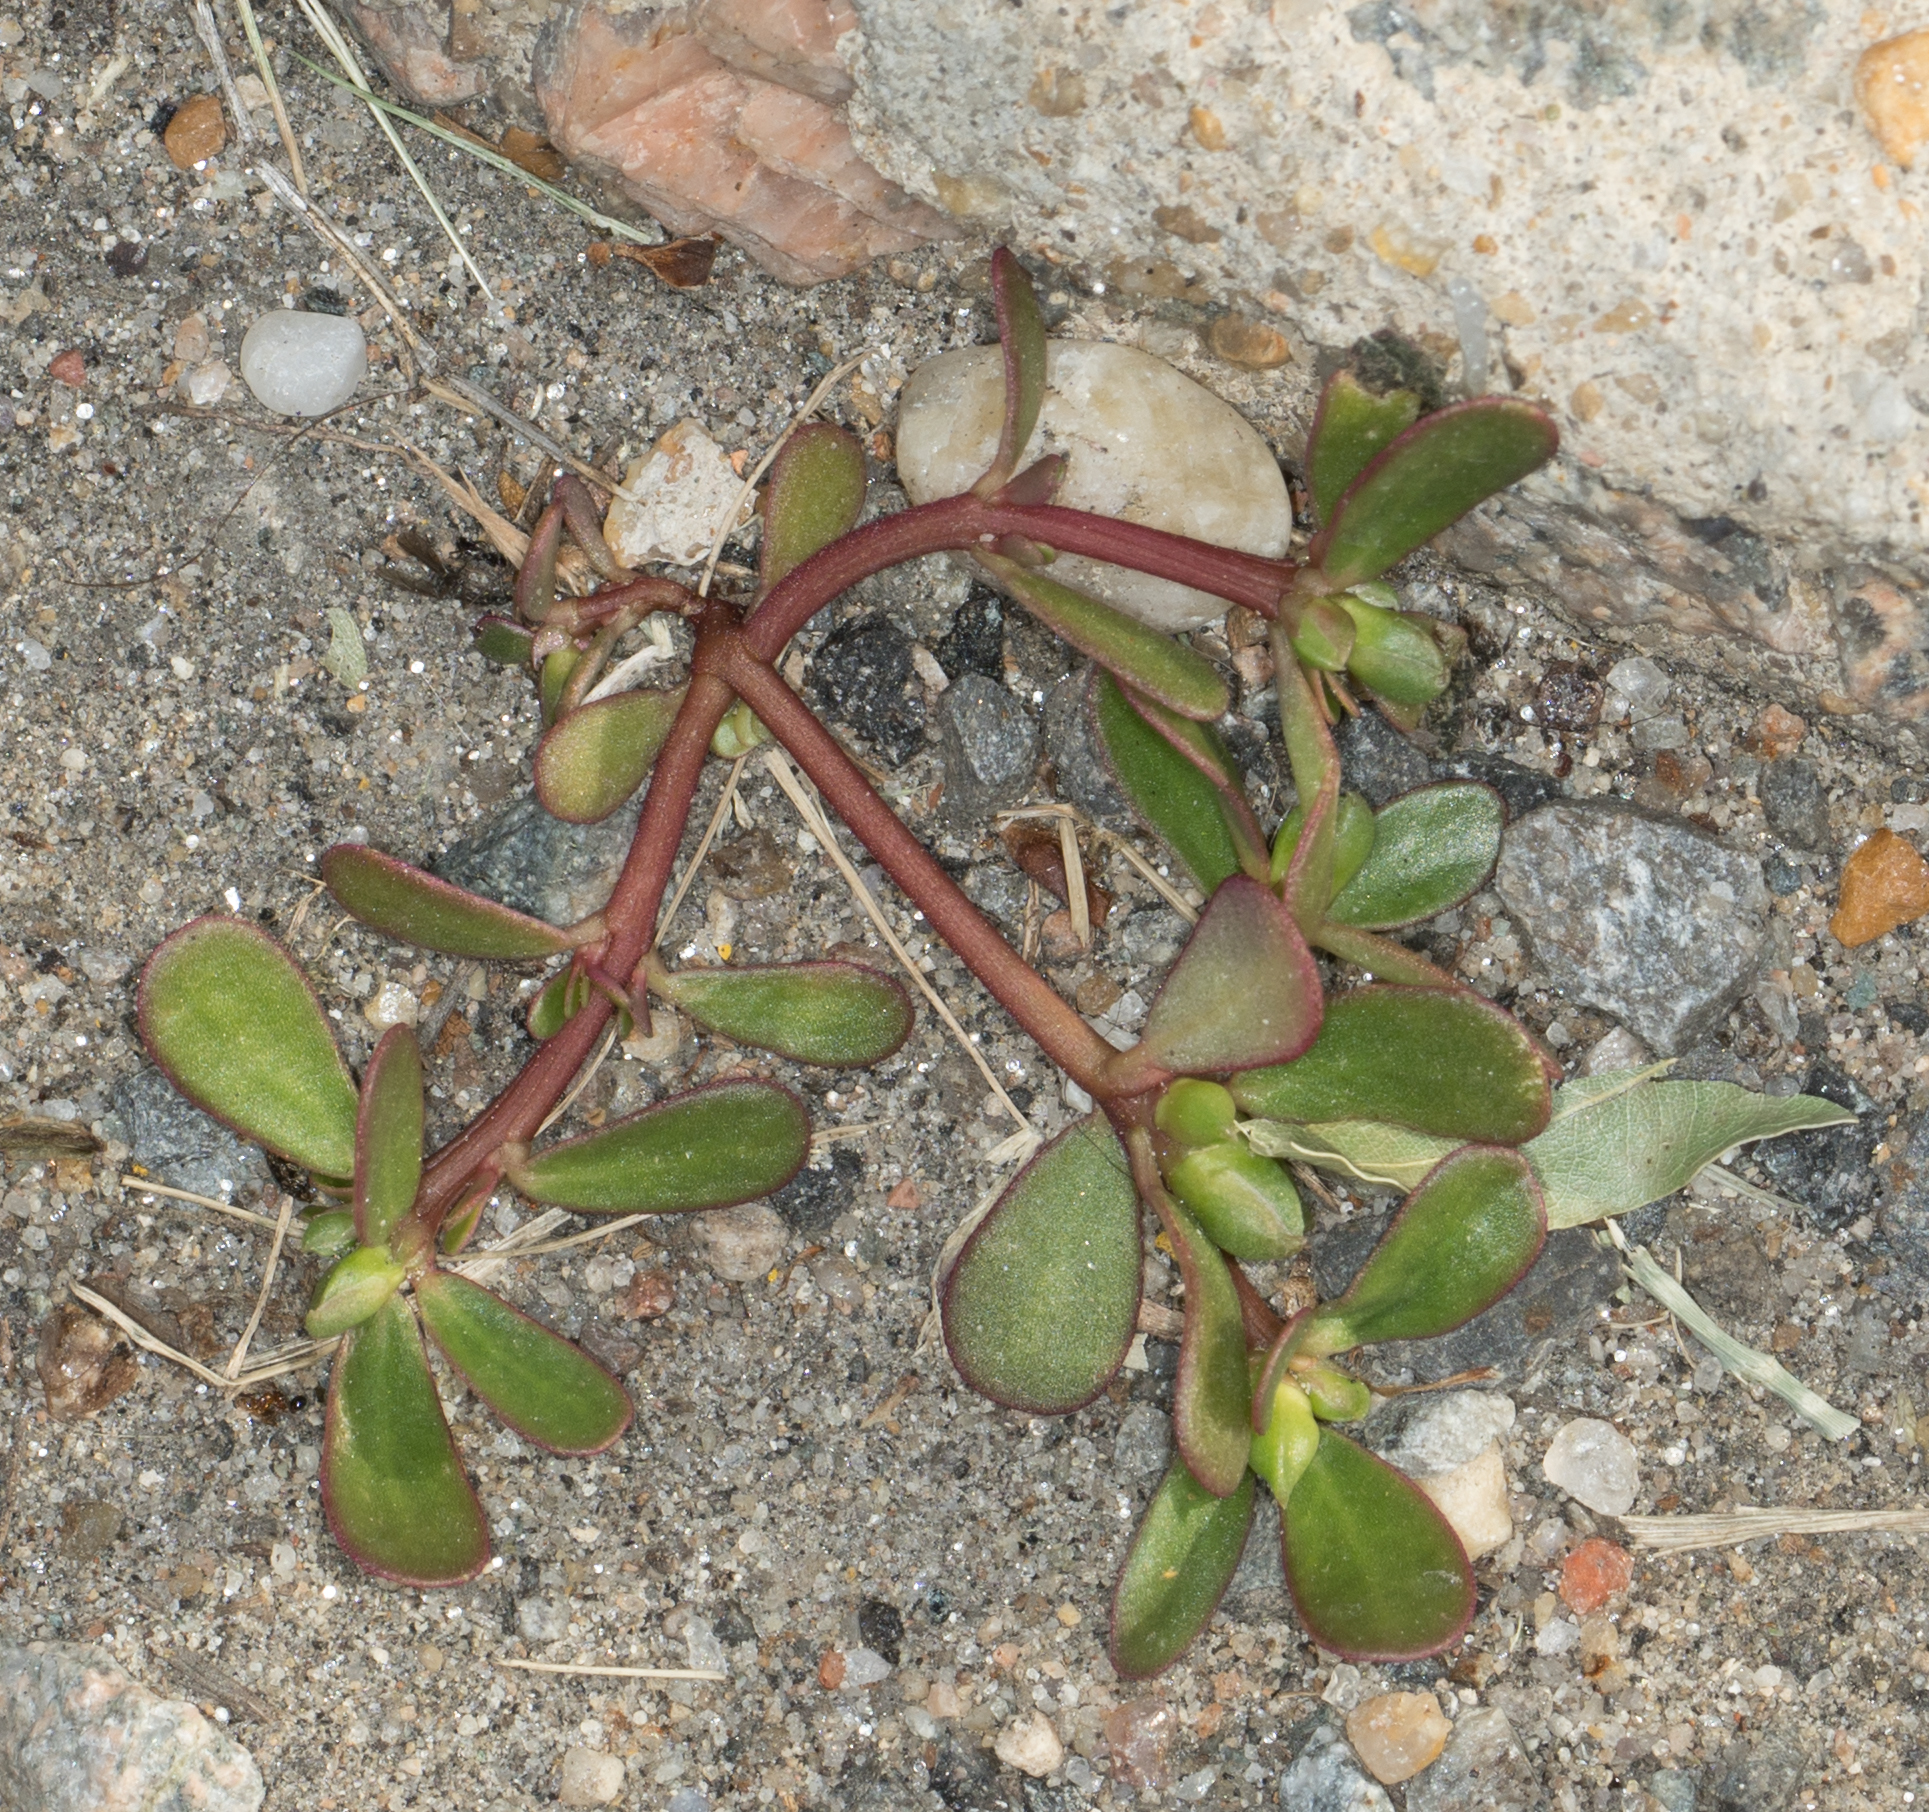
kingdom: Plantae
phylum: Tracheophyta
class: Magnoliopsida
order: Caryophyllales
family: Portulacaceae
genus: Portulaca
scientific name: Portulaca oleracea
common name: Common purslane
